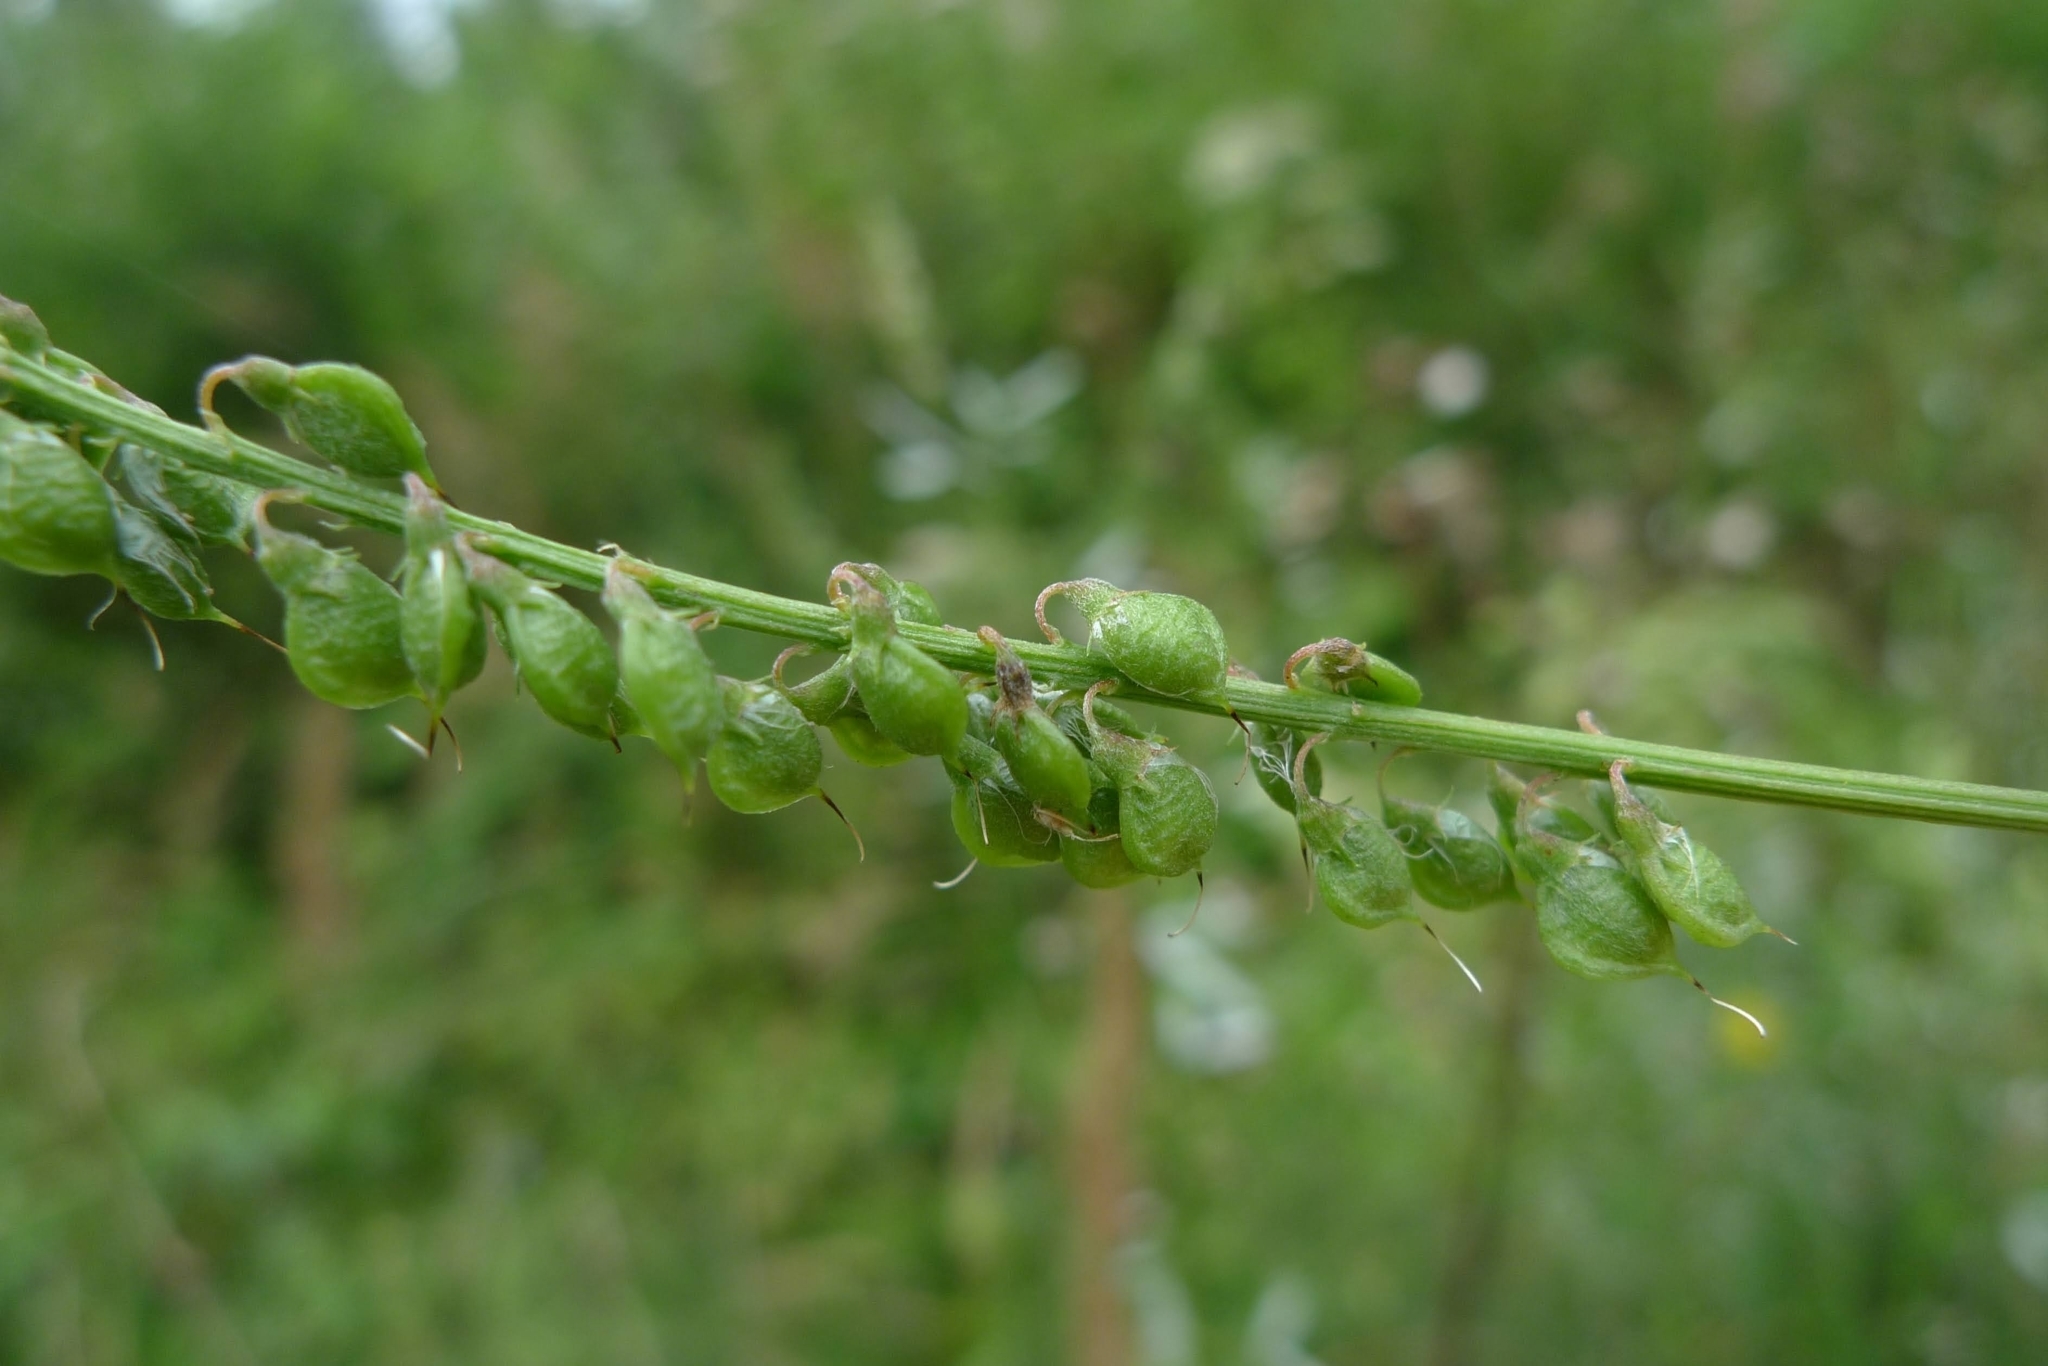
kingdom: Plantae
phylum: Tracheophyta
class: Magnoliopsida
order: Fabales
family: Fabaceae
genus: Melilotus
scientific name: Melilotus albus
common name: White melilot
